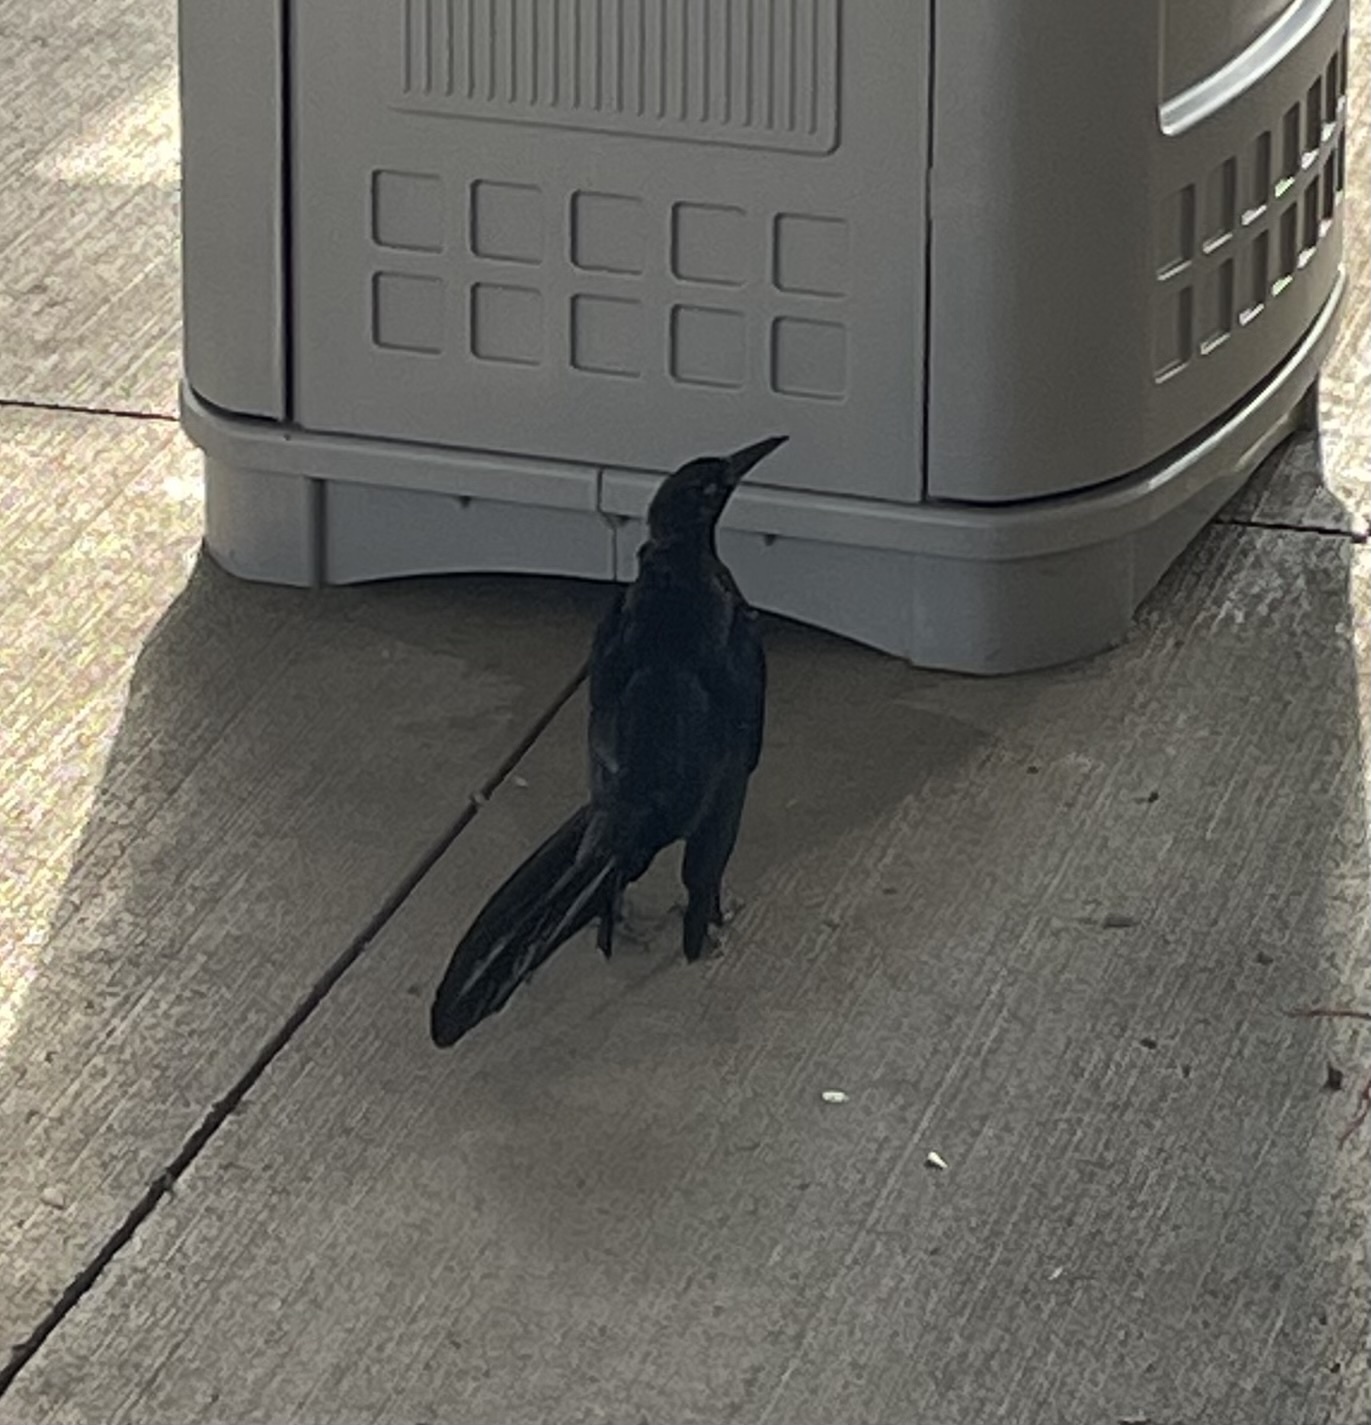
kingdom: Animalia
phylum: Chordata
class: Aves
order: Passeriformes
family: Icteridae
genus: Quiscalus
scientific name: Quiscalus mexicanus
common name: Great-tailed grackle
